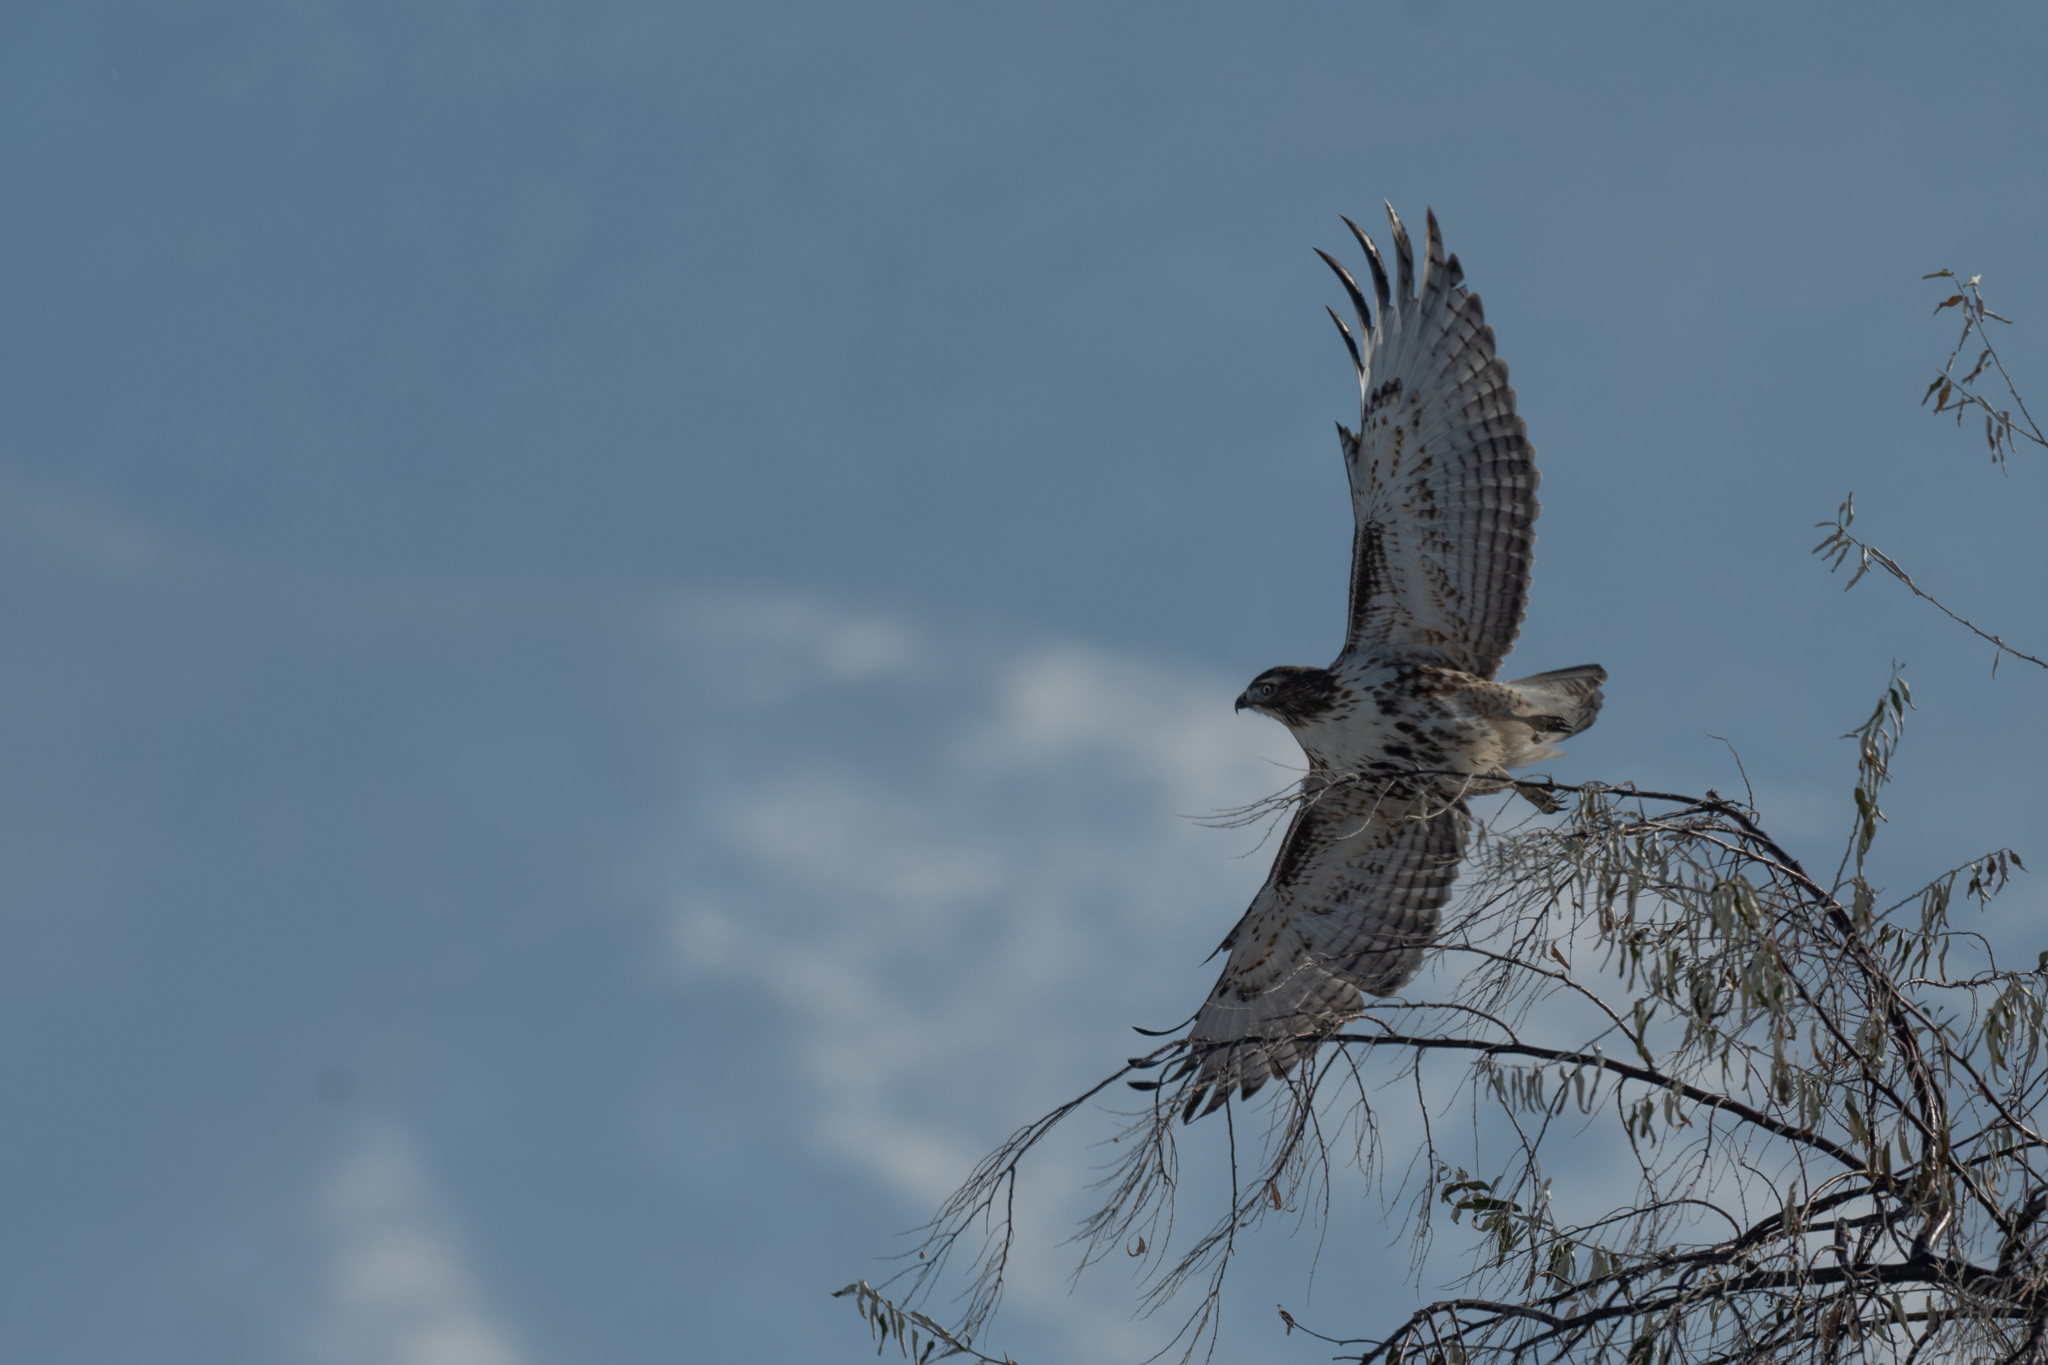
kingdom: Animalia
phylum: Chordata
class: Aves
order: Accipitriformes
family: Accipitridae
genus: Buteo
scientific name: Buteo jamaicensis
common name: Red-tailed hawk
